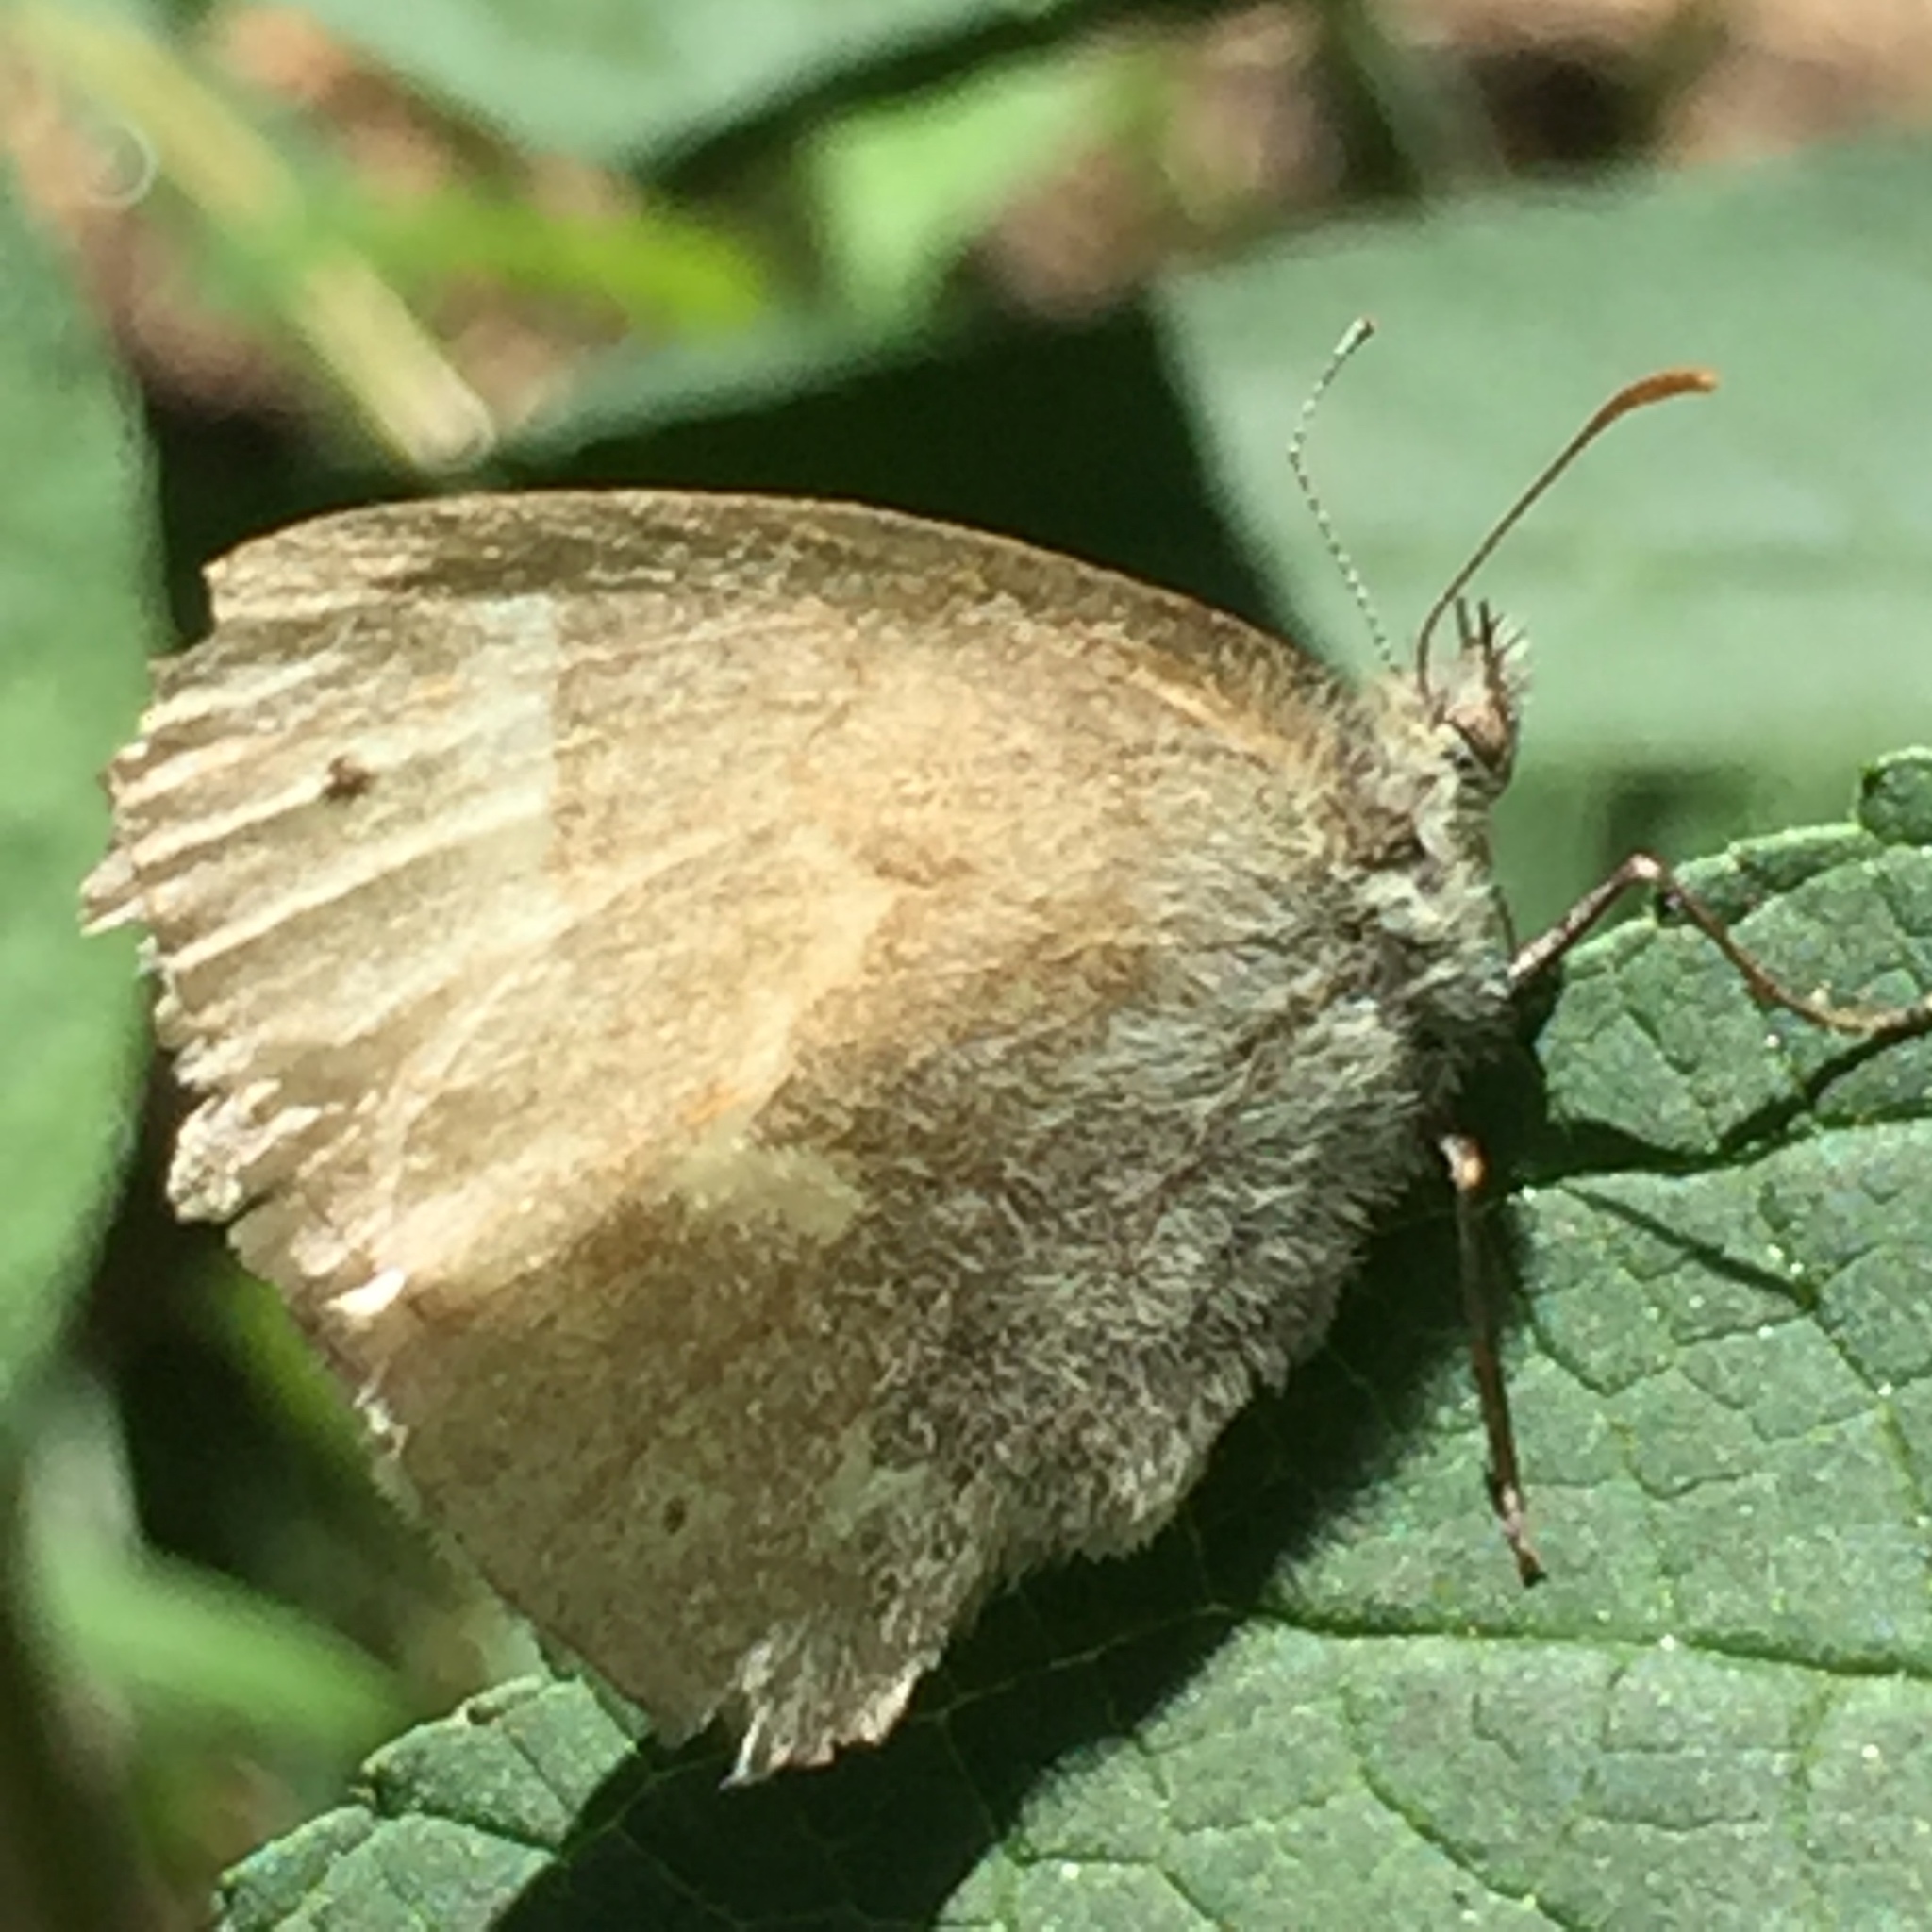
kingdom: Animalia
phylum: Arthropoda
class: Insecta
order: Lepidoptera
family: Nymphalidae
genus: Coenonympha
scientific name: Coenonympha california
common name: Common ringlet
